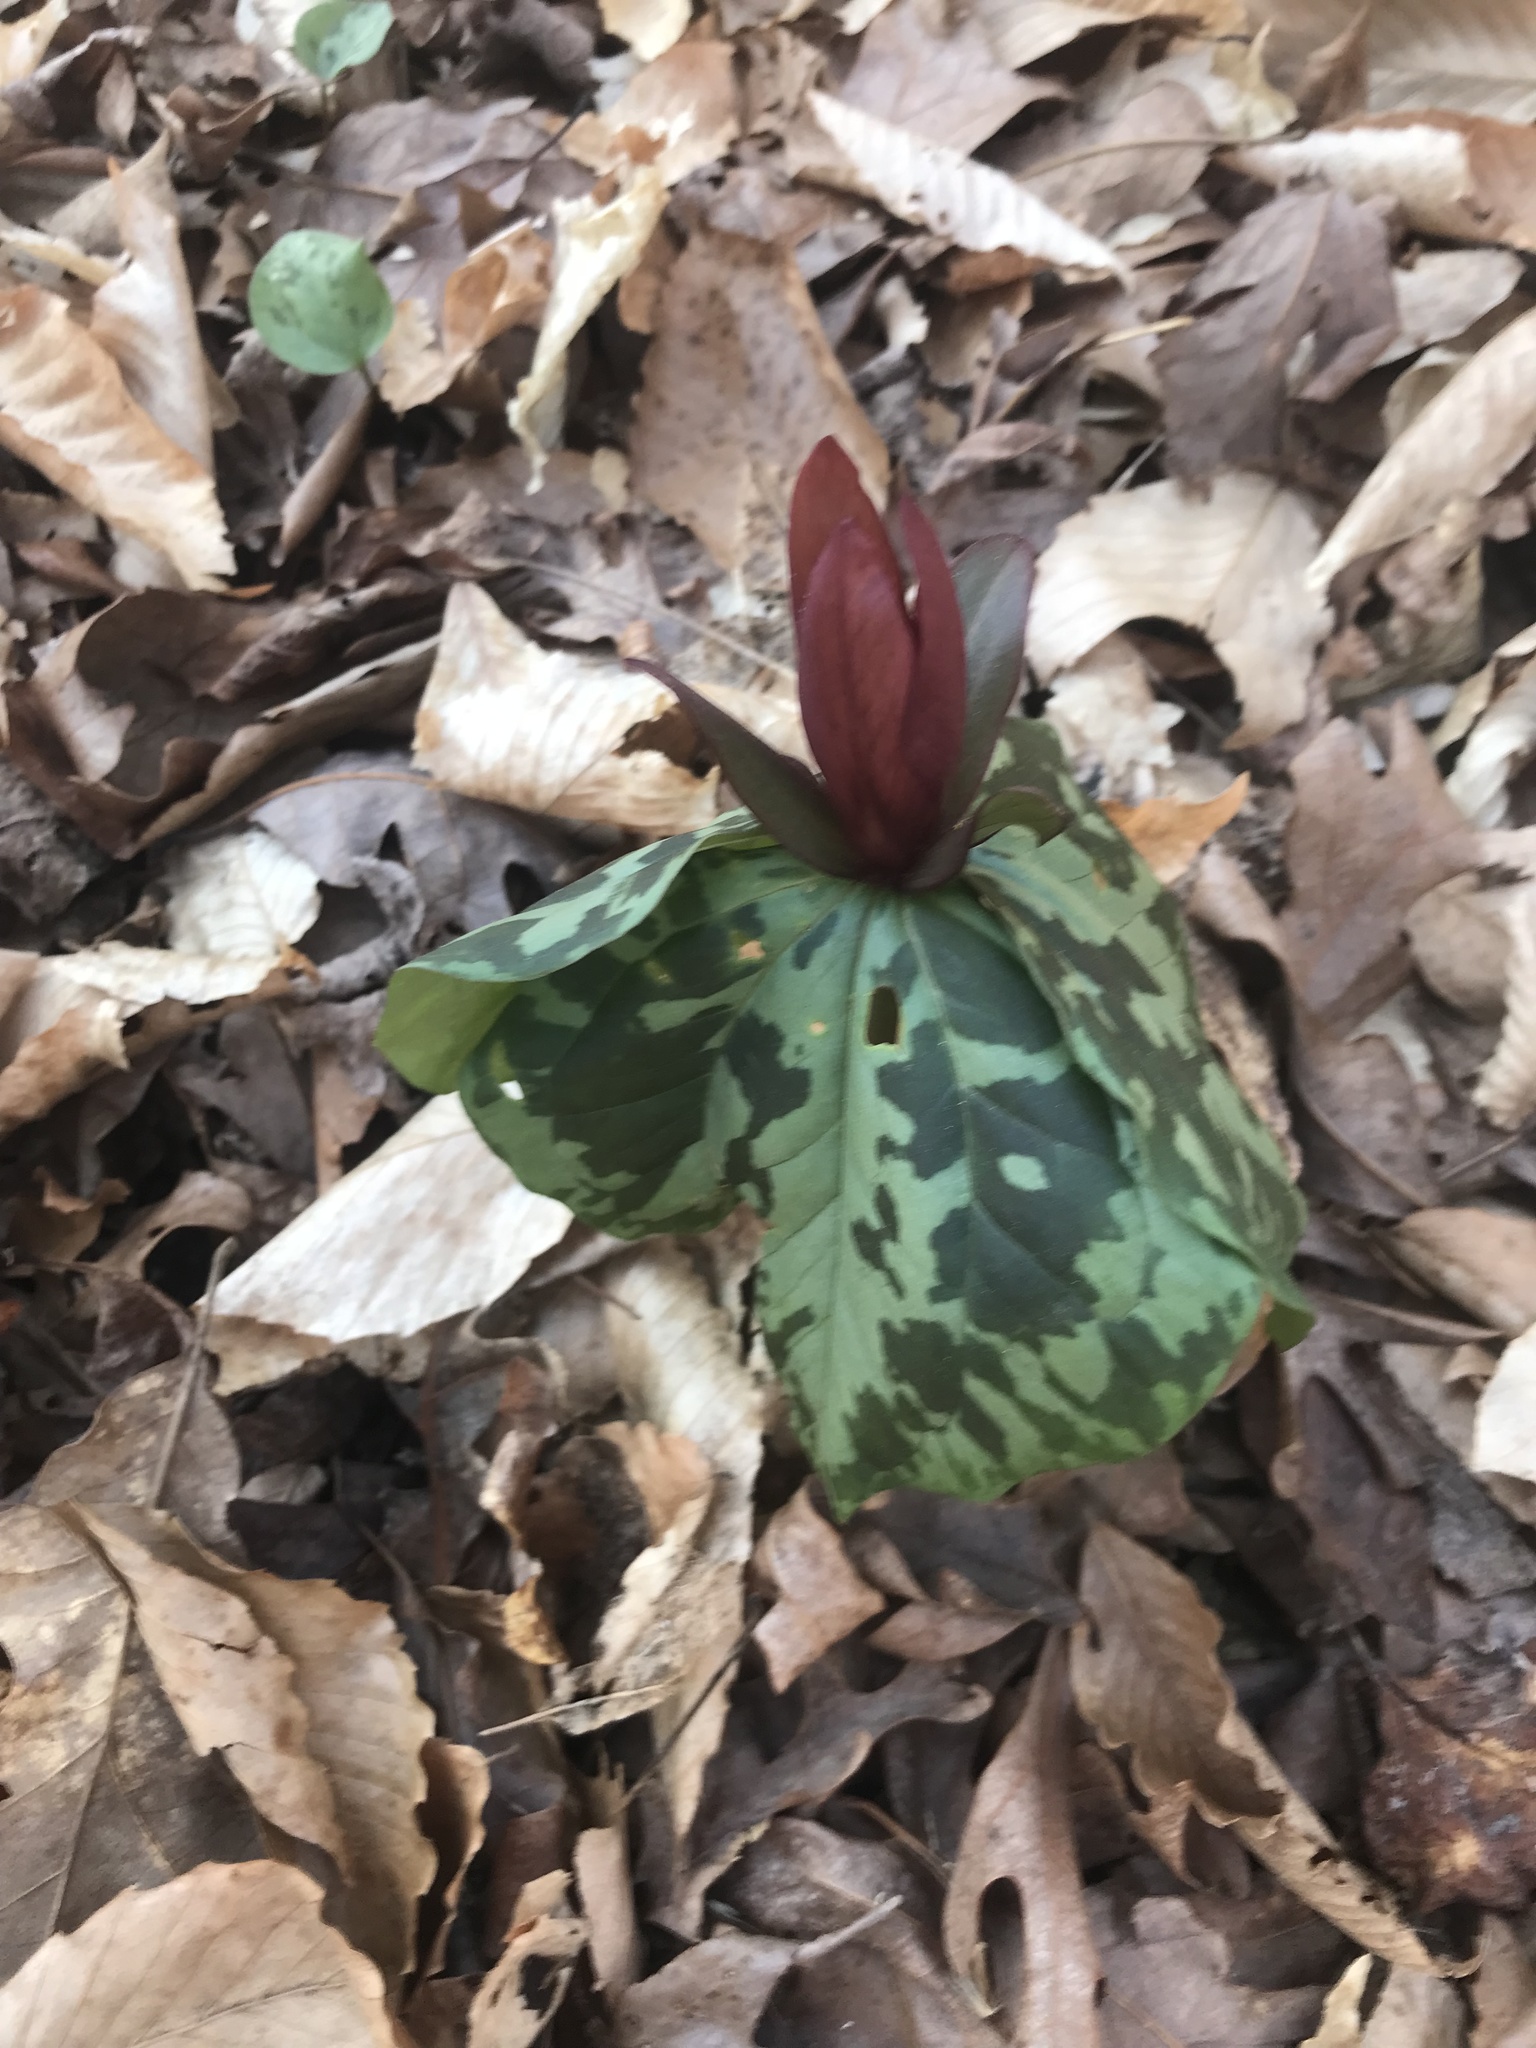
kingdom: Plantae
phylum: Tracheophyta
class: Liliopsida
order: Liliales
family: Melanthiaceae
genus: Trillium
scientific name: Trillium cuneatum
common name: Cuneate trillium
